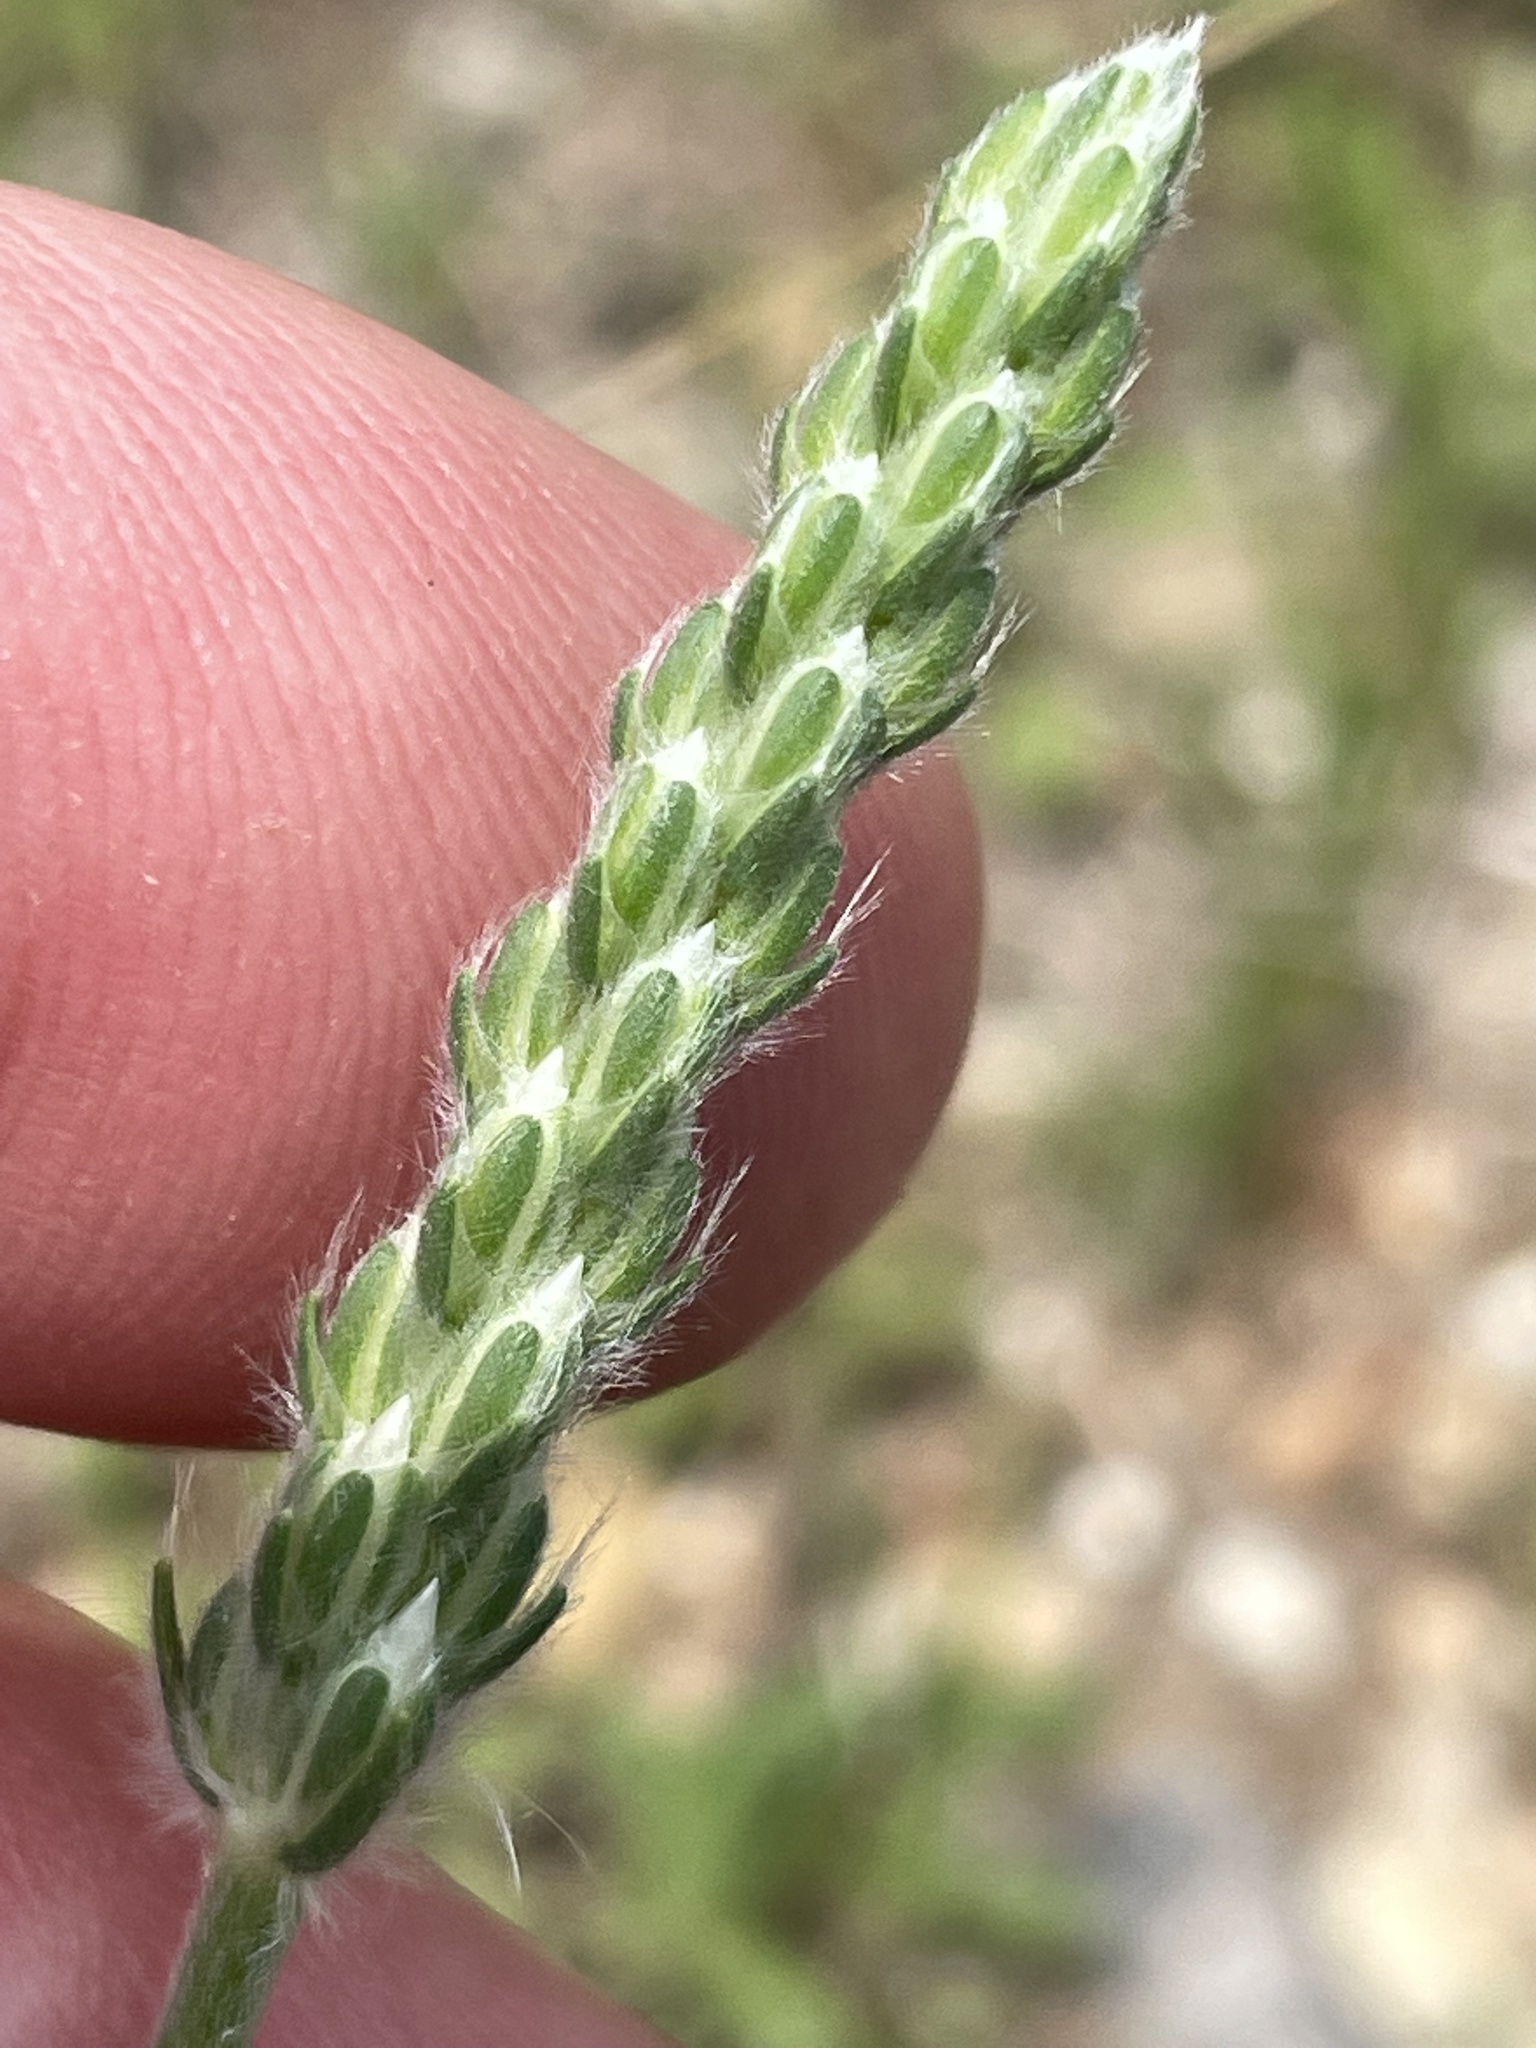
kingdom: Plantae
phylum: Tracheophyta
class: Magnoliopsida
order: Lamiales
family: Plantaginaceae
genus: Plantago
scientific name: Plantago wrightiana
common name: Wright's plantain
